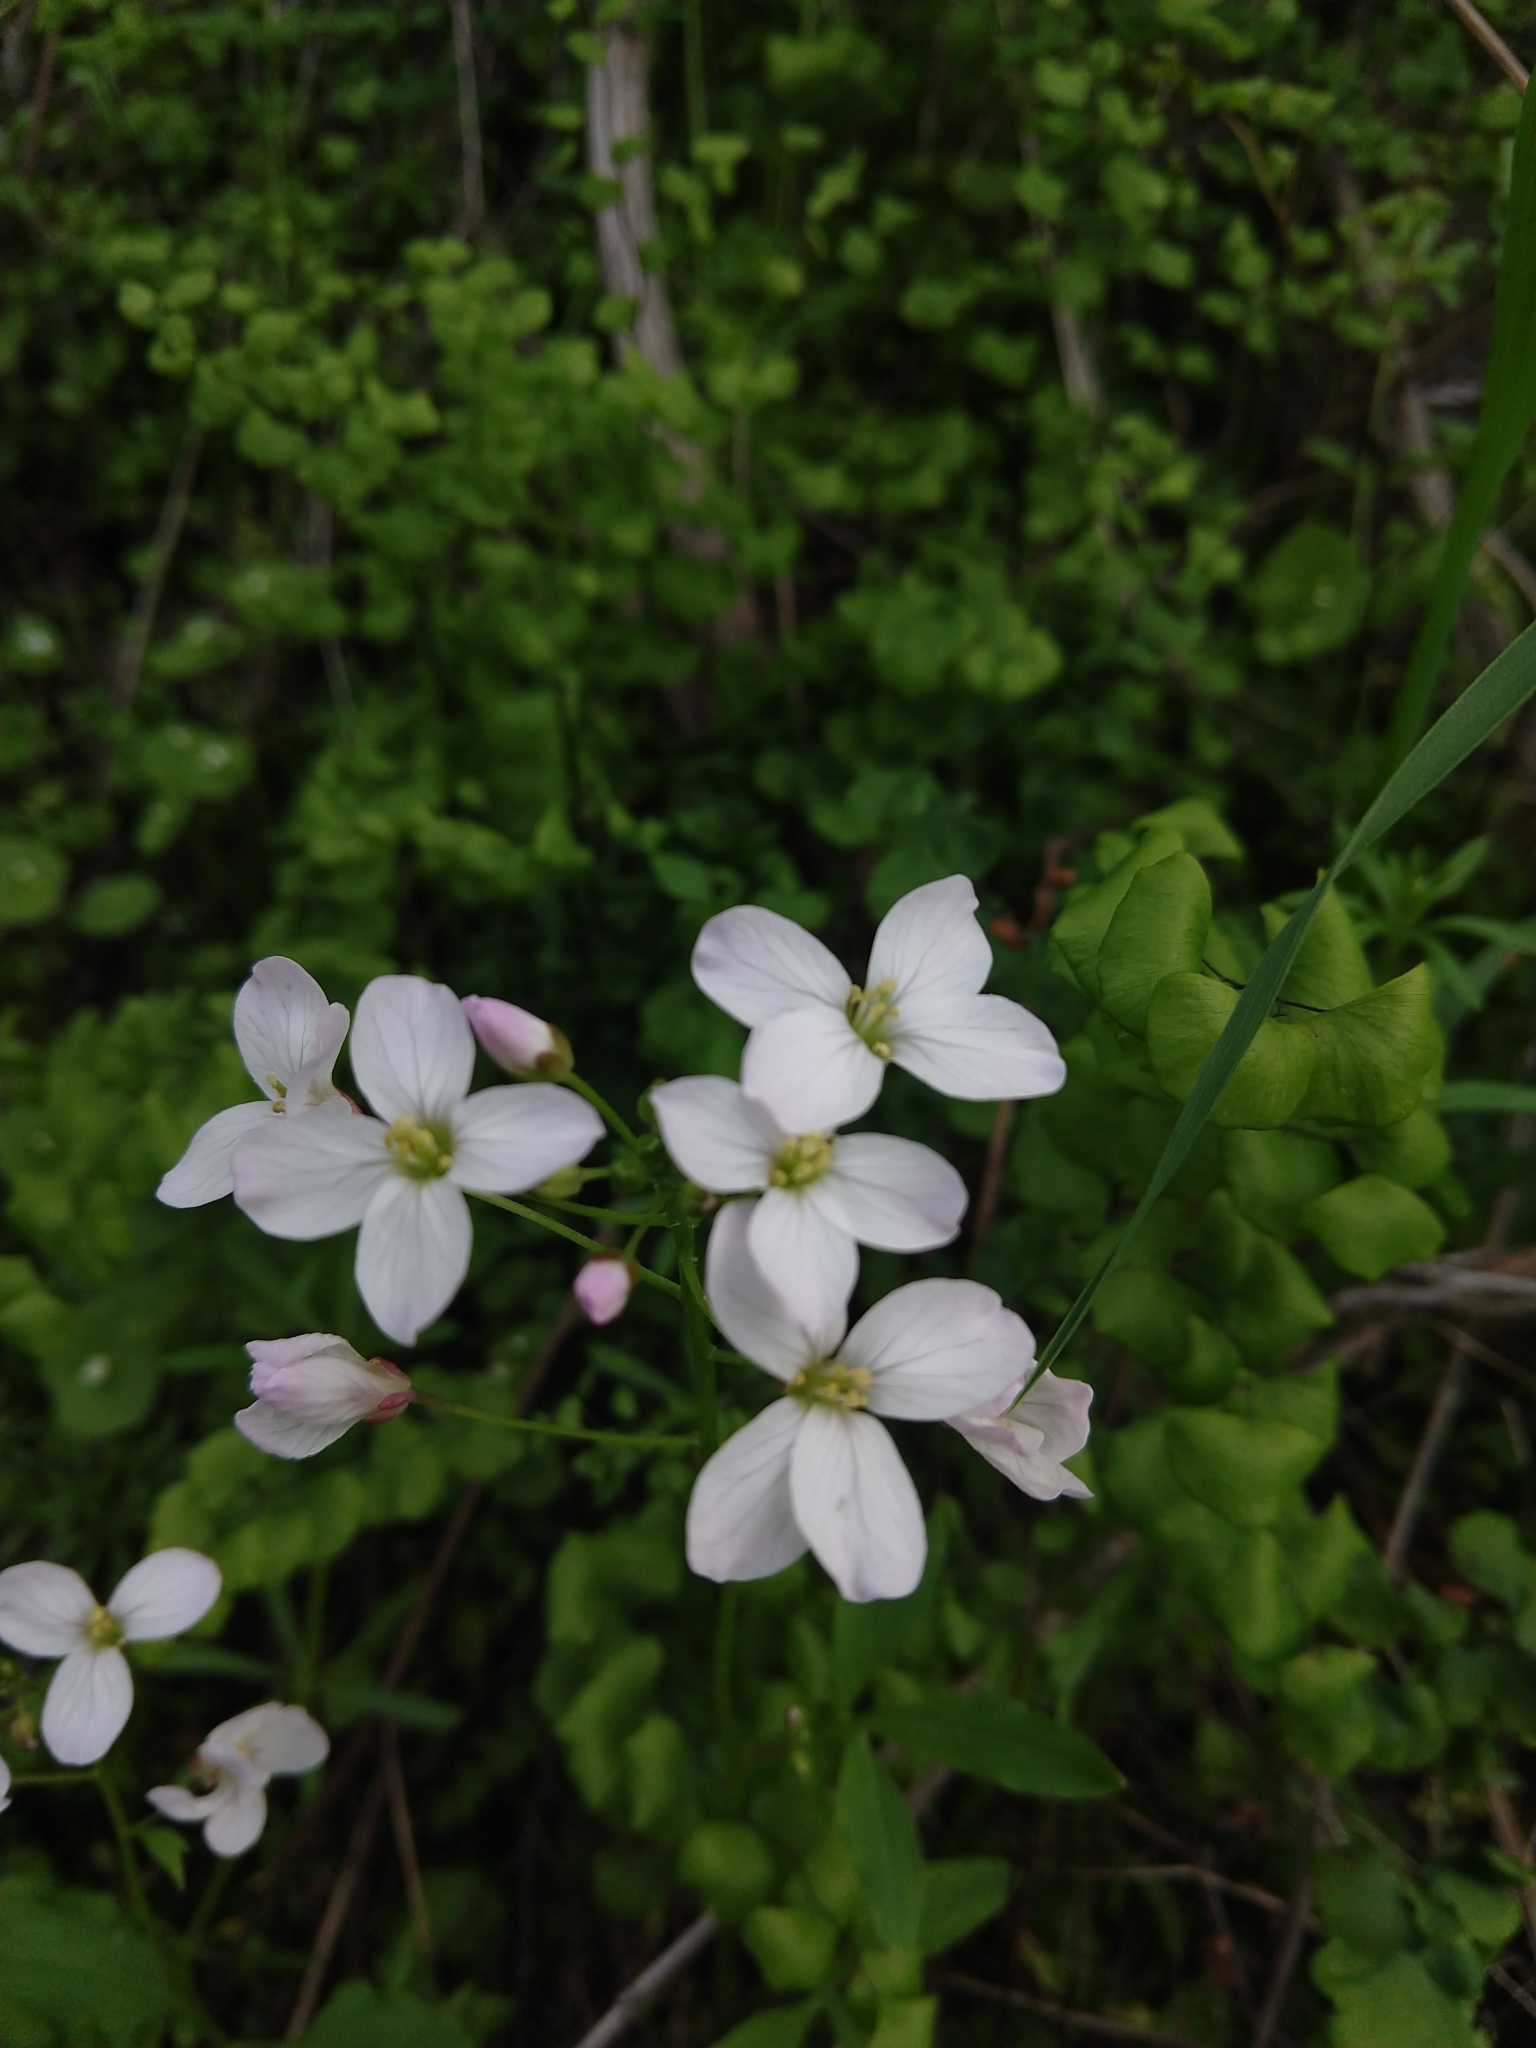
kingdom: Plantae
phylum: Tracheophyta
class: Magnoliopsida
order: Brassicales
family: Brassicaceae
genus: Cardamine
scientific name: Cardamine californica
